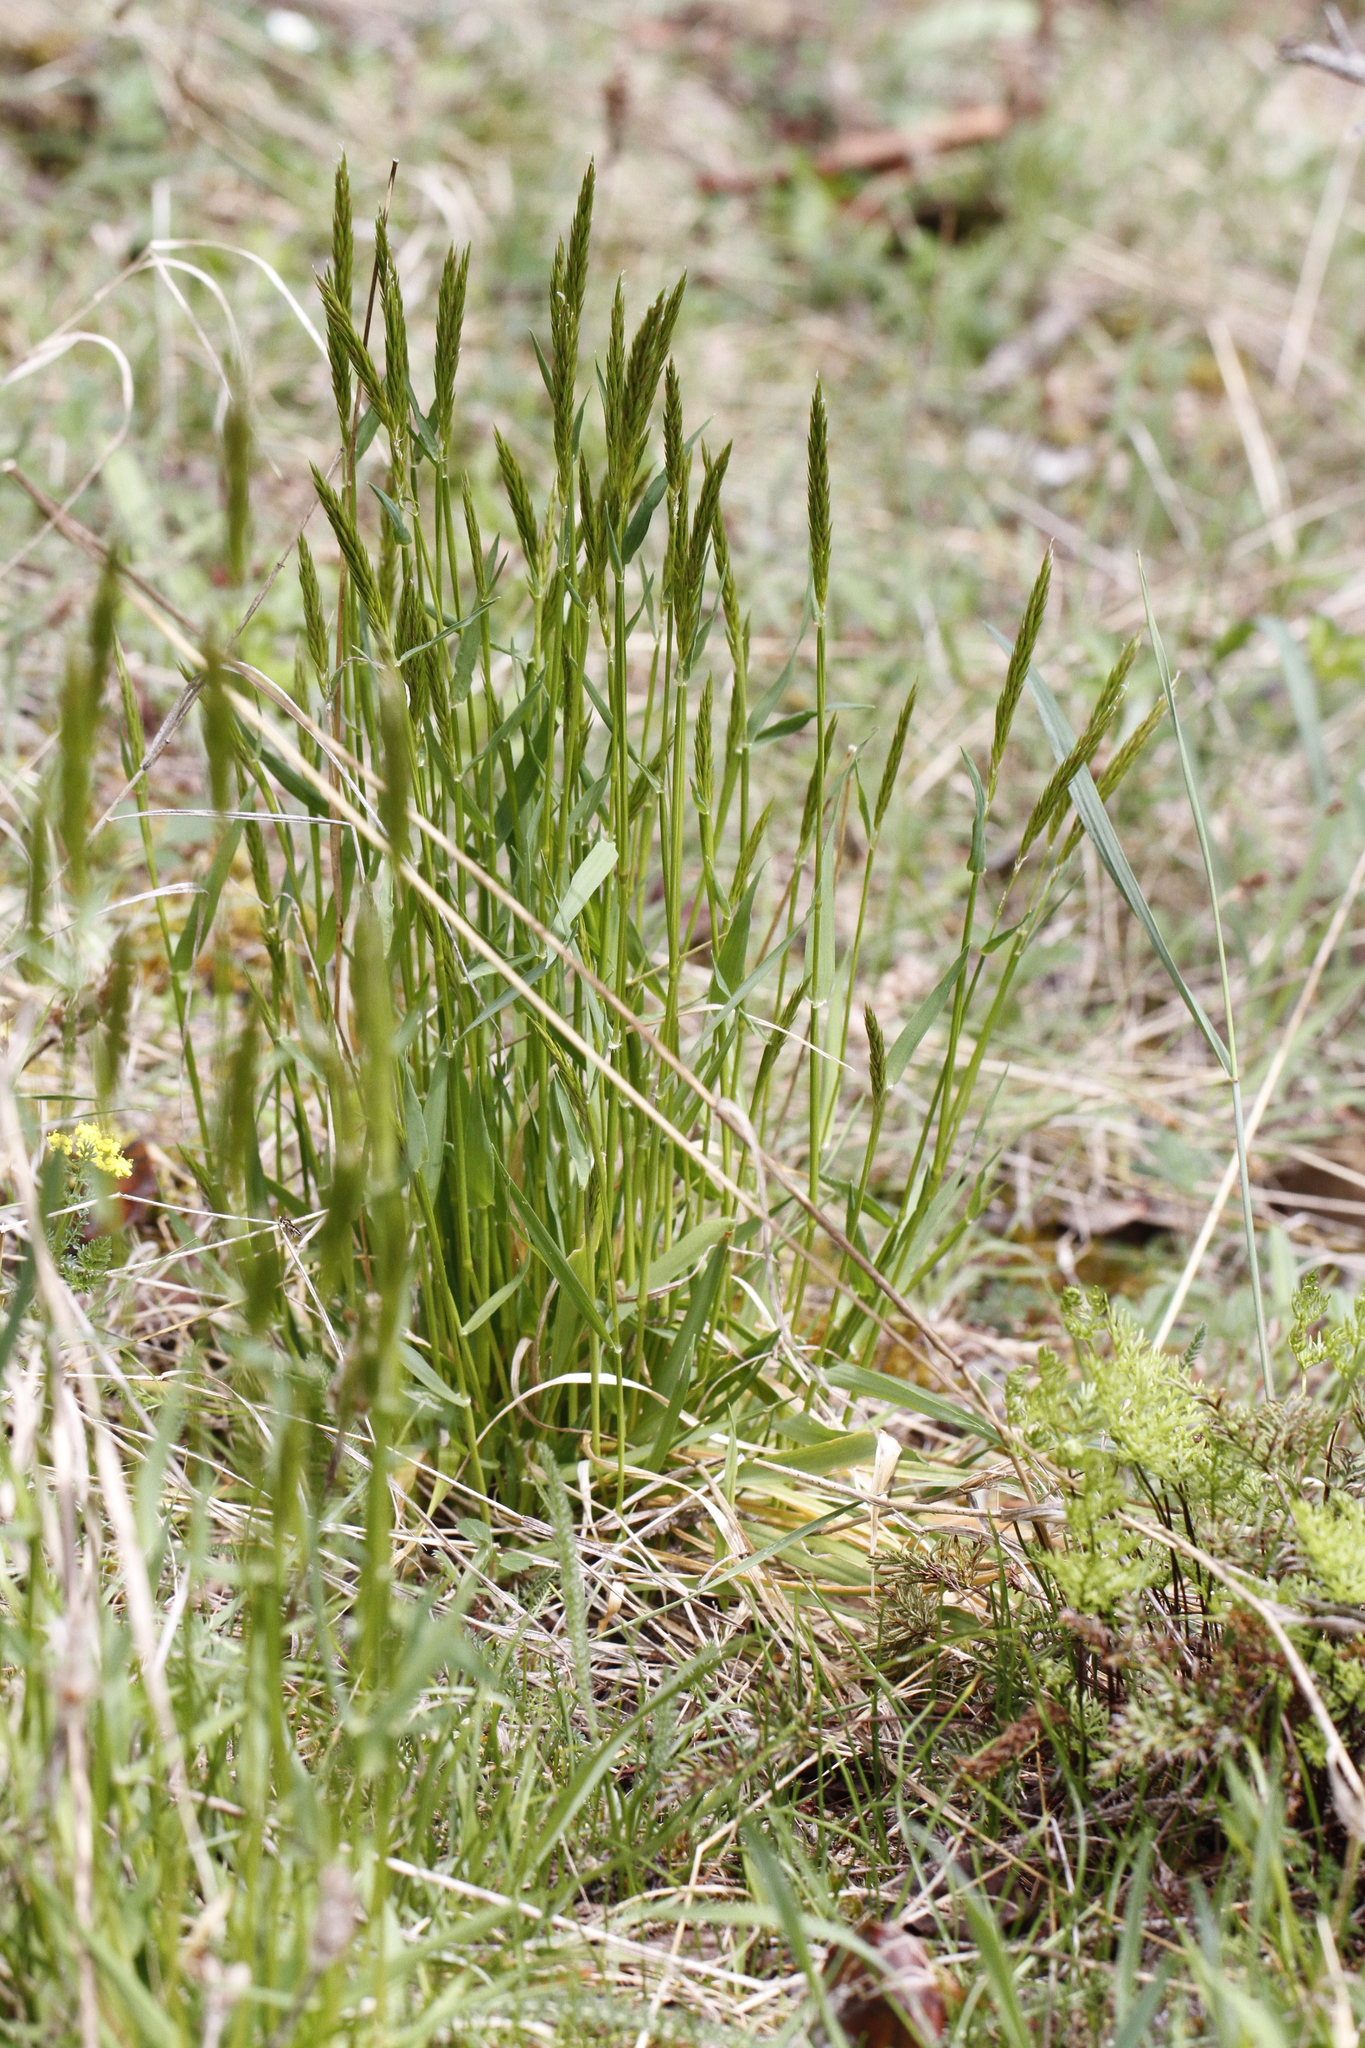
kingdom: Plantae
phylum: Tracheophyta
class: Liliopsida
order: Poales
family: Poaceae
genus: Anthoxanthum
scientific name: Anthoxanthum odoratum
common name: Sweet vernalgrass
